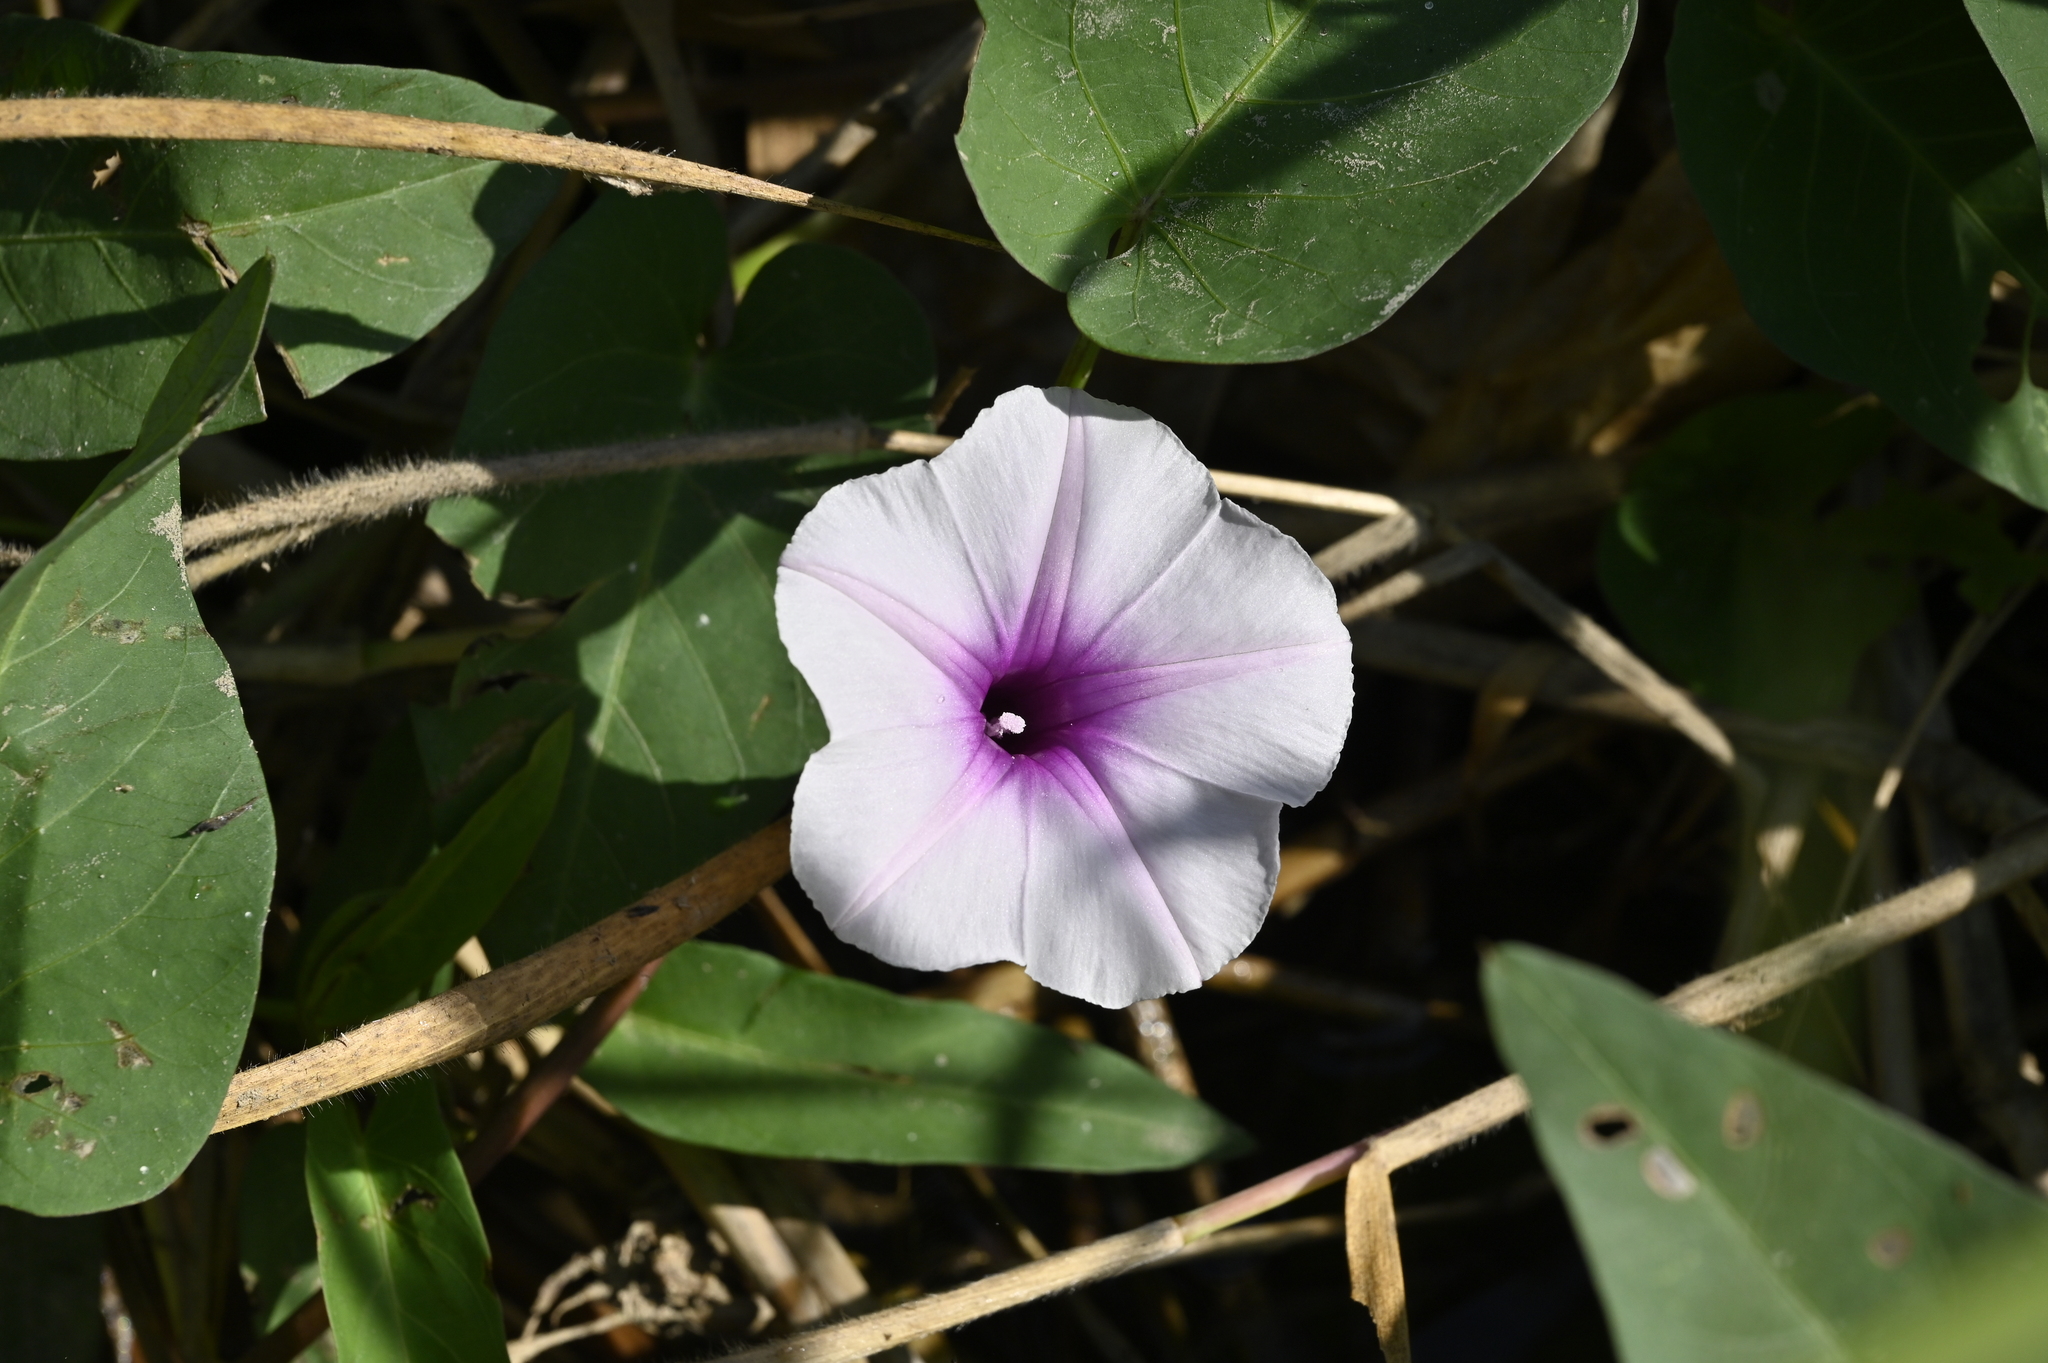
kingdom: Plantae
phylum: Tracheophyta
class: Magnoliopsida
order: Solanales
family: Convolvulaceae
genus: Ipomoea
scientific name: Ipomoea aquatica
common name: Swamp morning-glory
